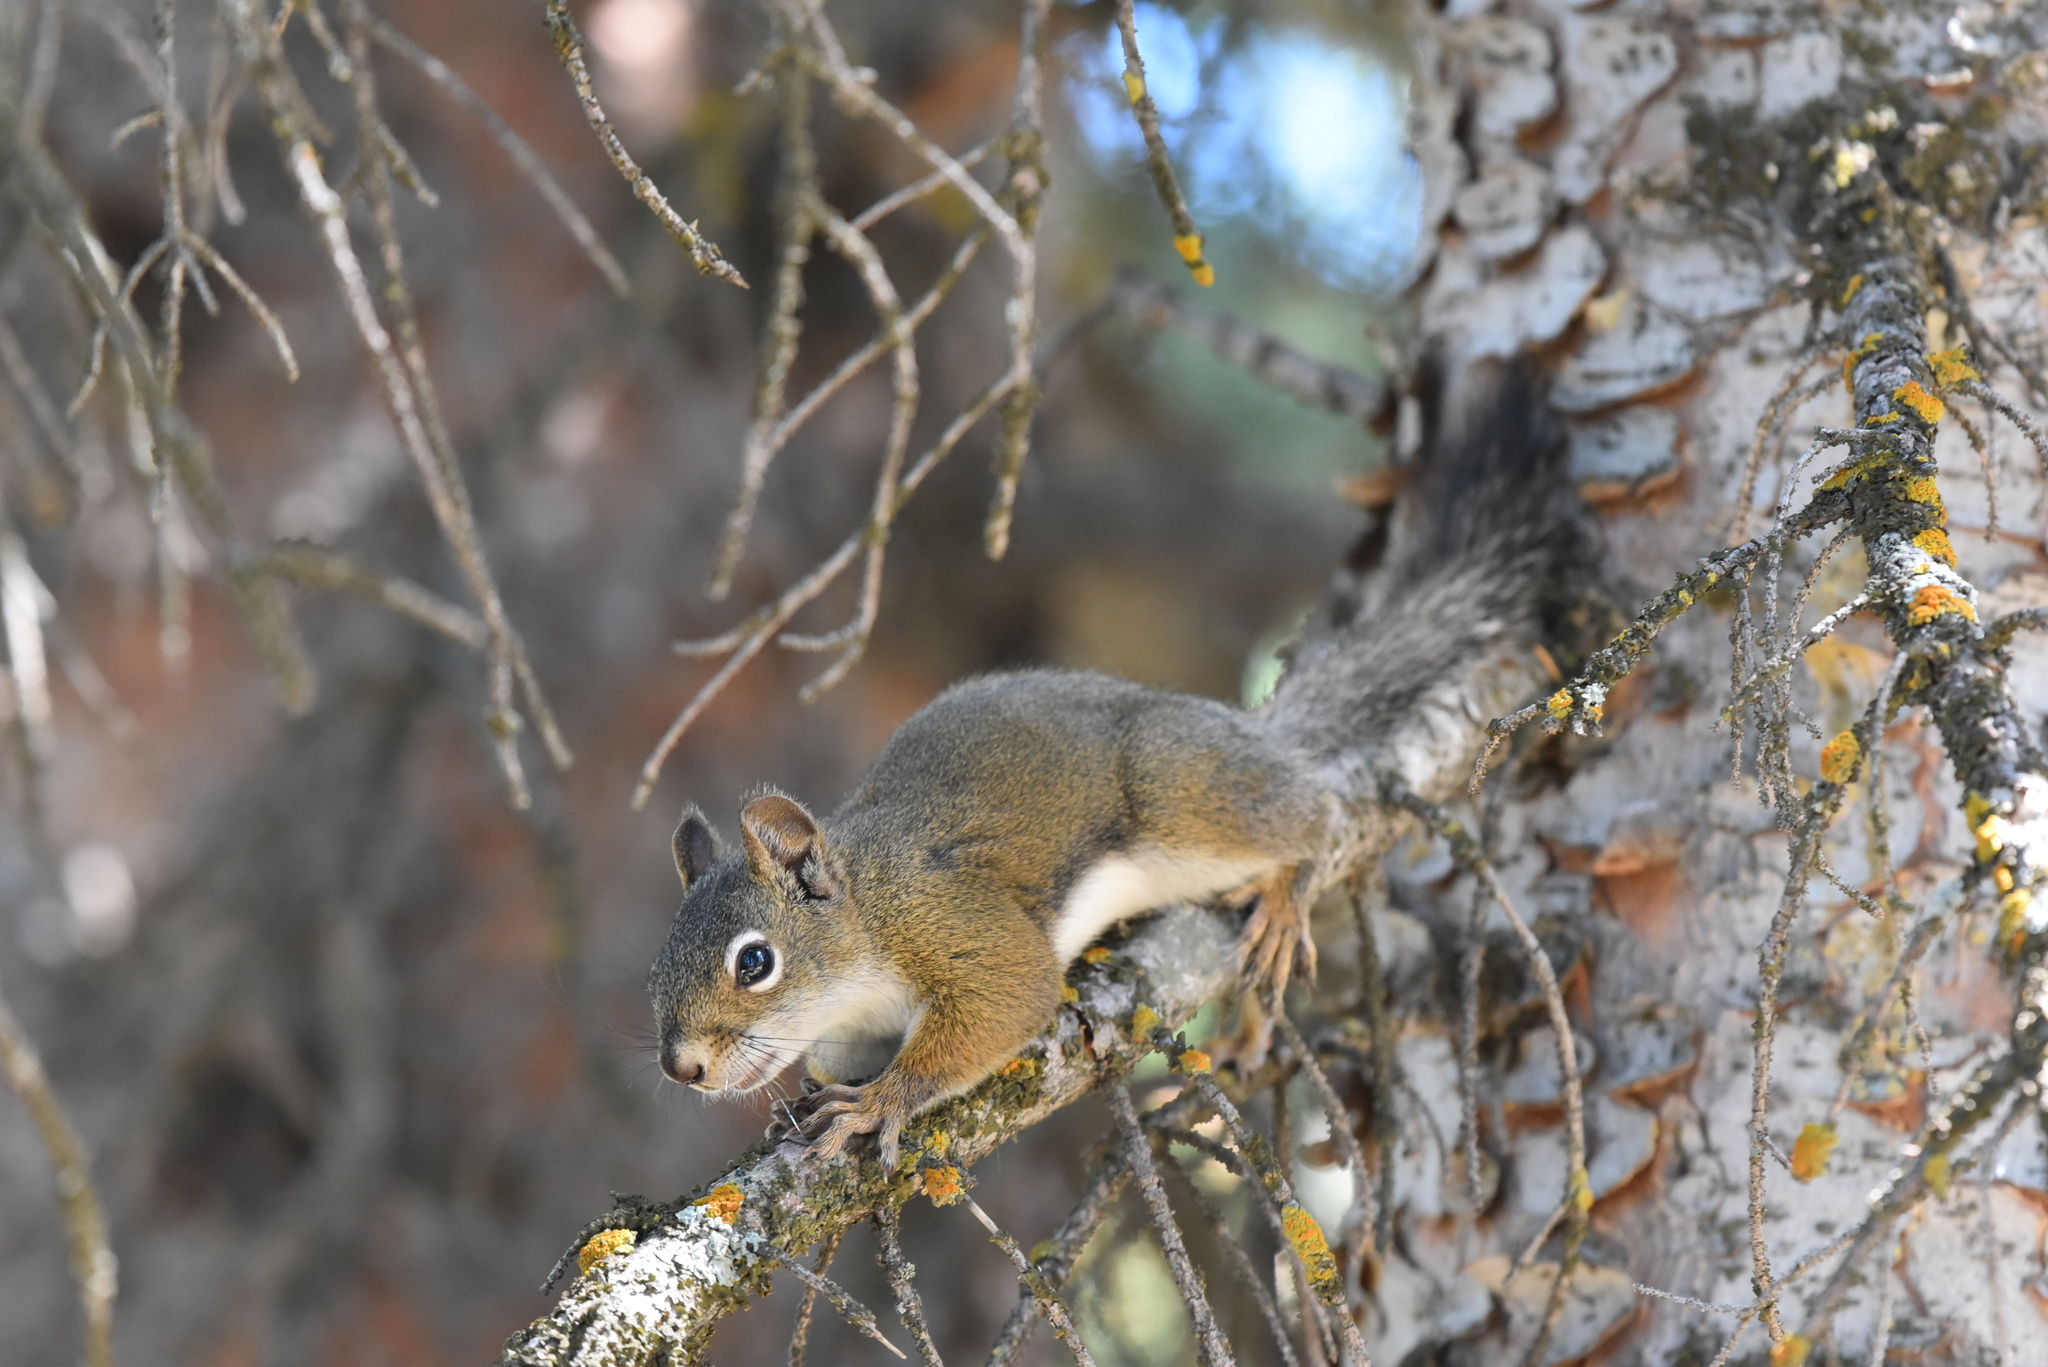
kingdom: Animalia
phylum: Chordata
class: Mammalia
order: Rodentia
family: Sciuridae
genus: Tamiasciurus
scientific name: Tamiasciurus hudsonicus
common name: Red squirrel
